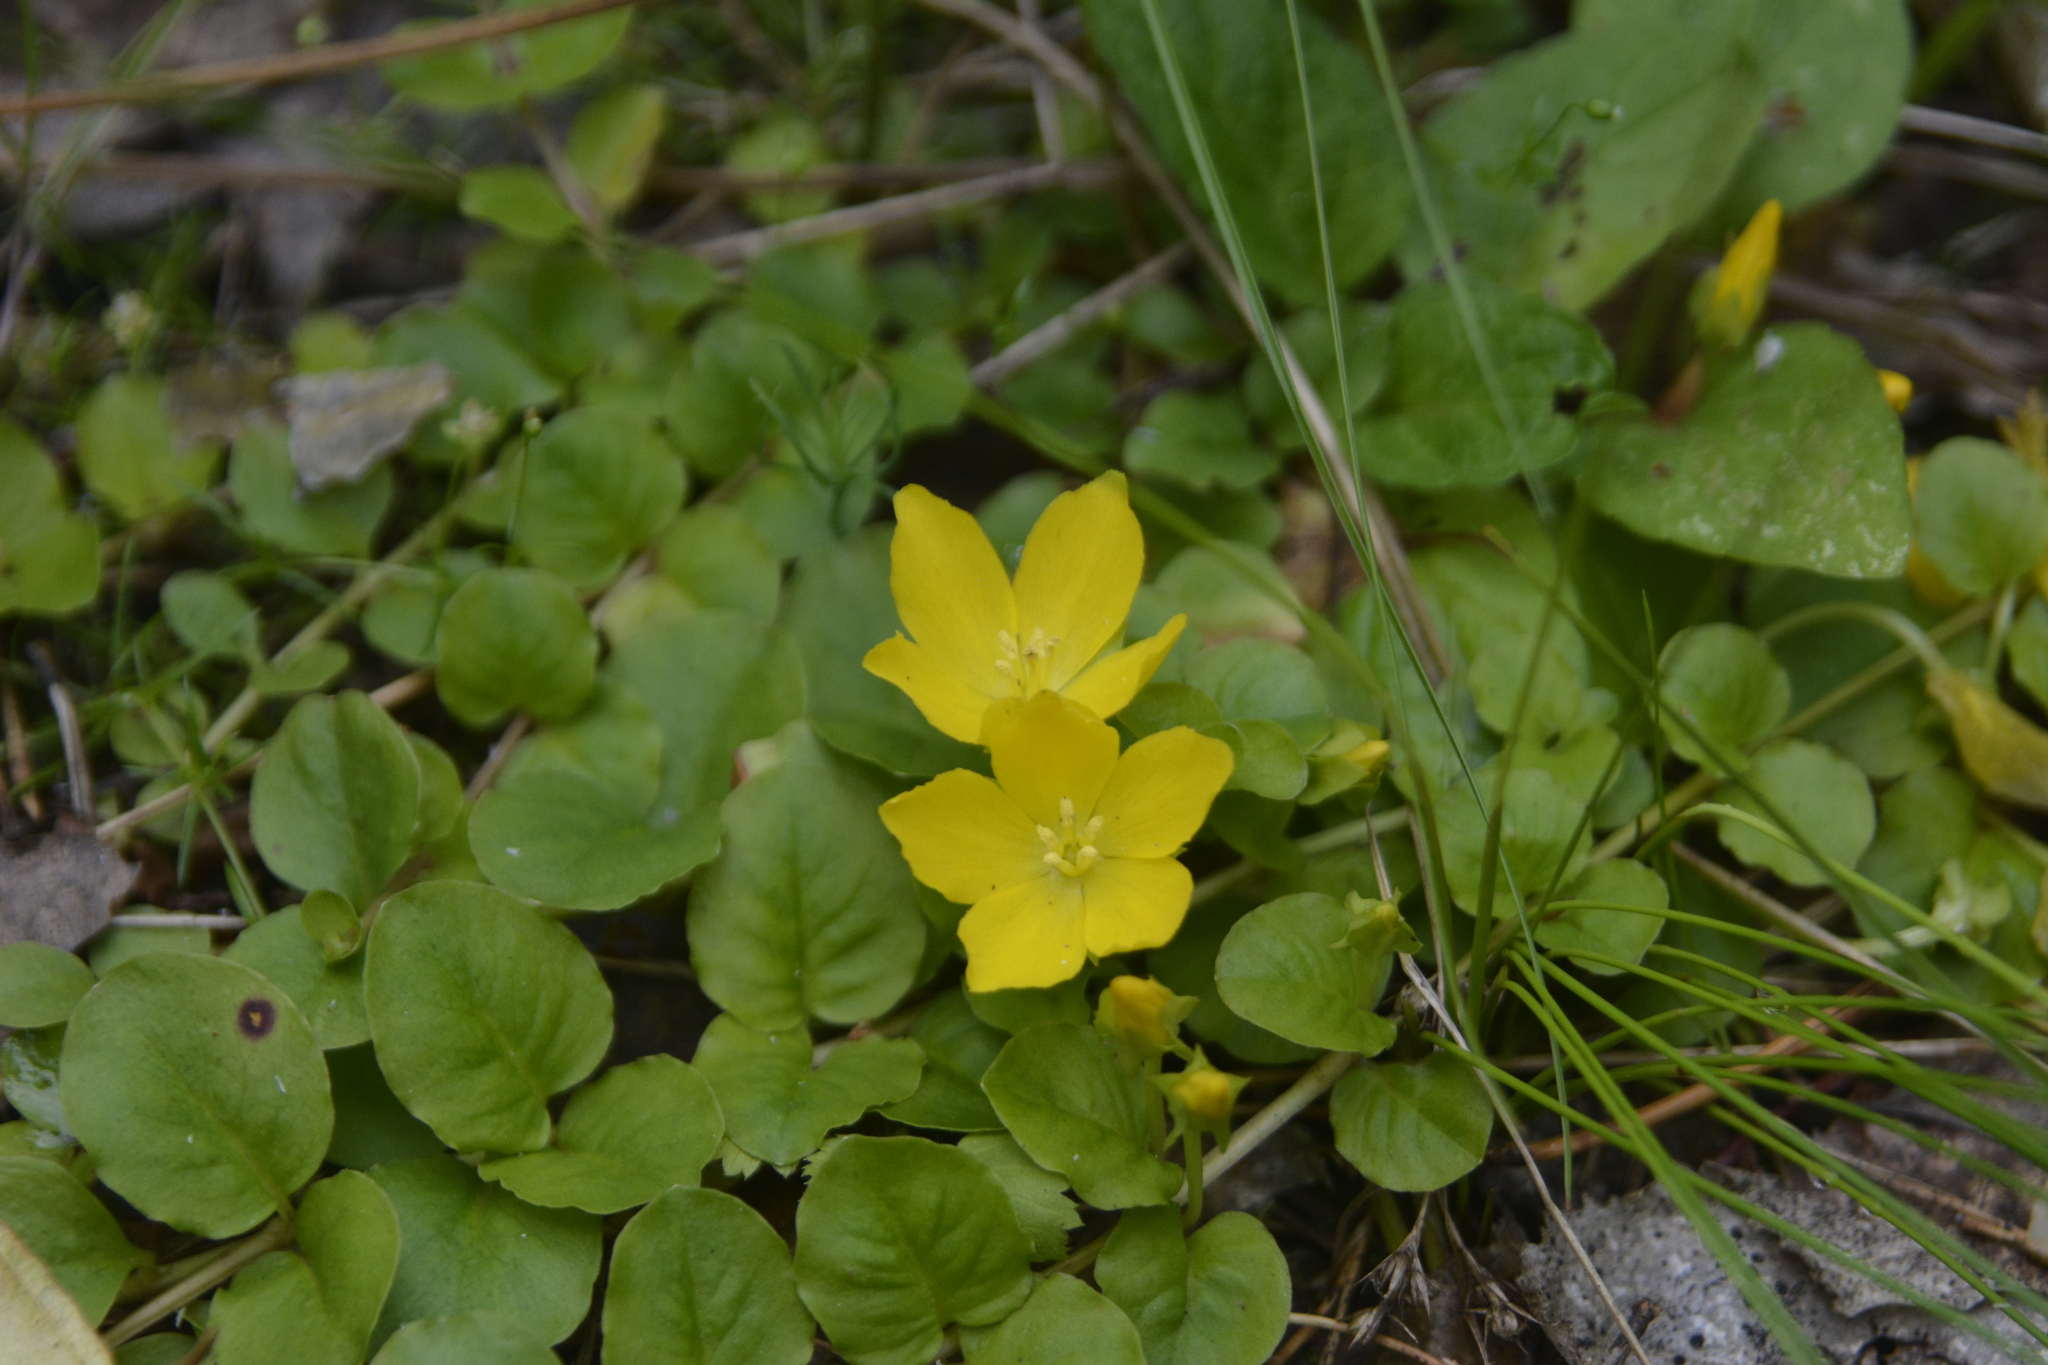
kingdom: Plantae
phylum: Tracheophyta
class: Magnoliopsida
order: Ericales
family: Primulaceae
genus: Lysimachia
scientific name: Lysimachia nummularia
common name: Moneywort
